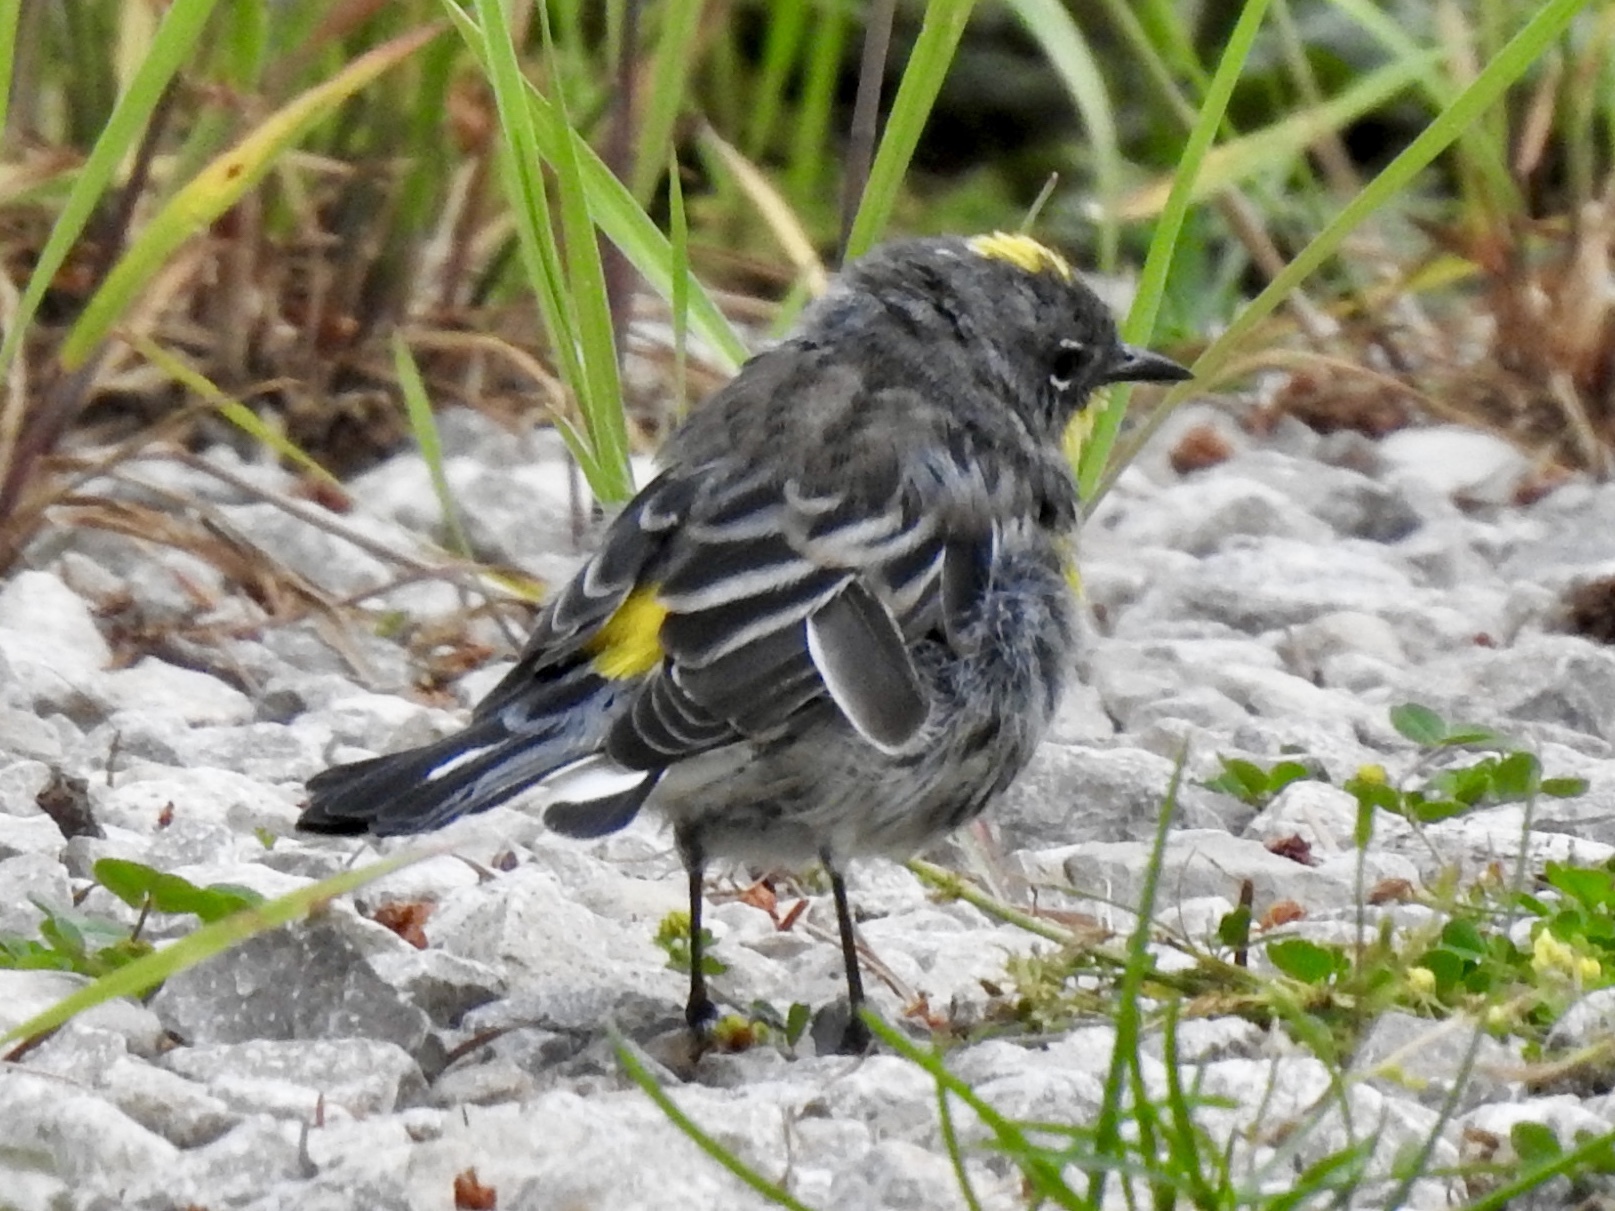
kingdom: Animalia
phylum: Chordata
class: Aves
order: Passeriformes
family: Parulidae
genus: Setophaga
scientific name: Setophaga coronata
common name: Myrtle warbler
